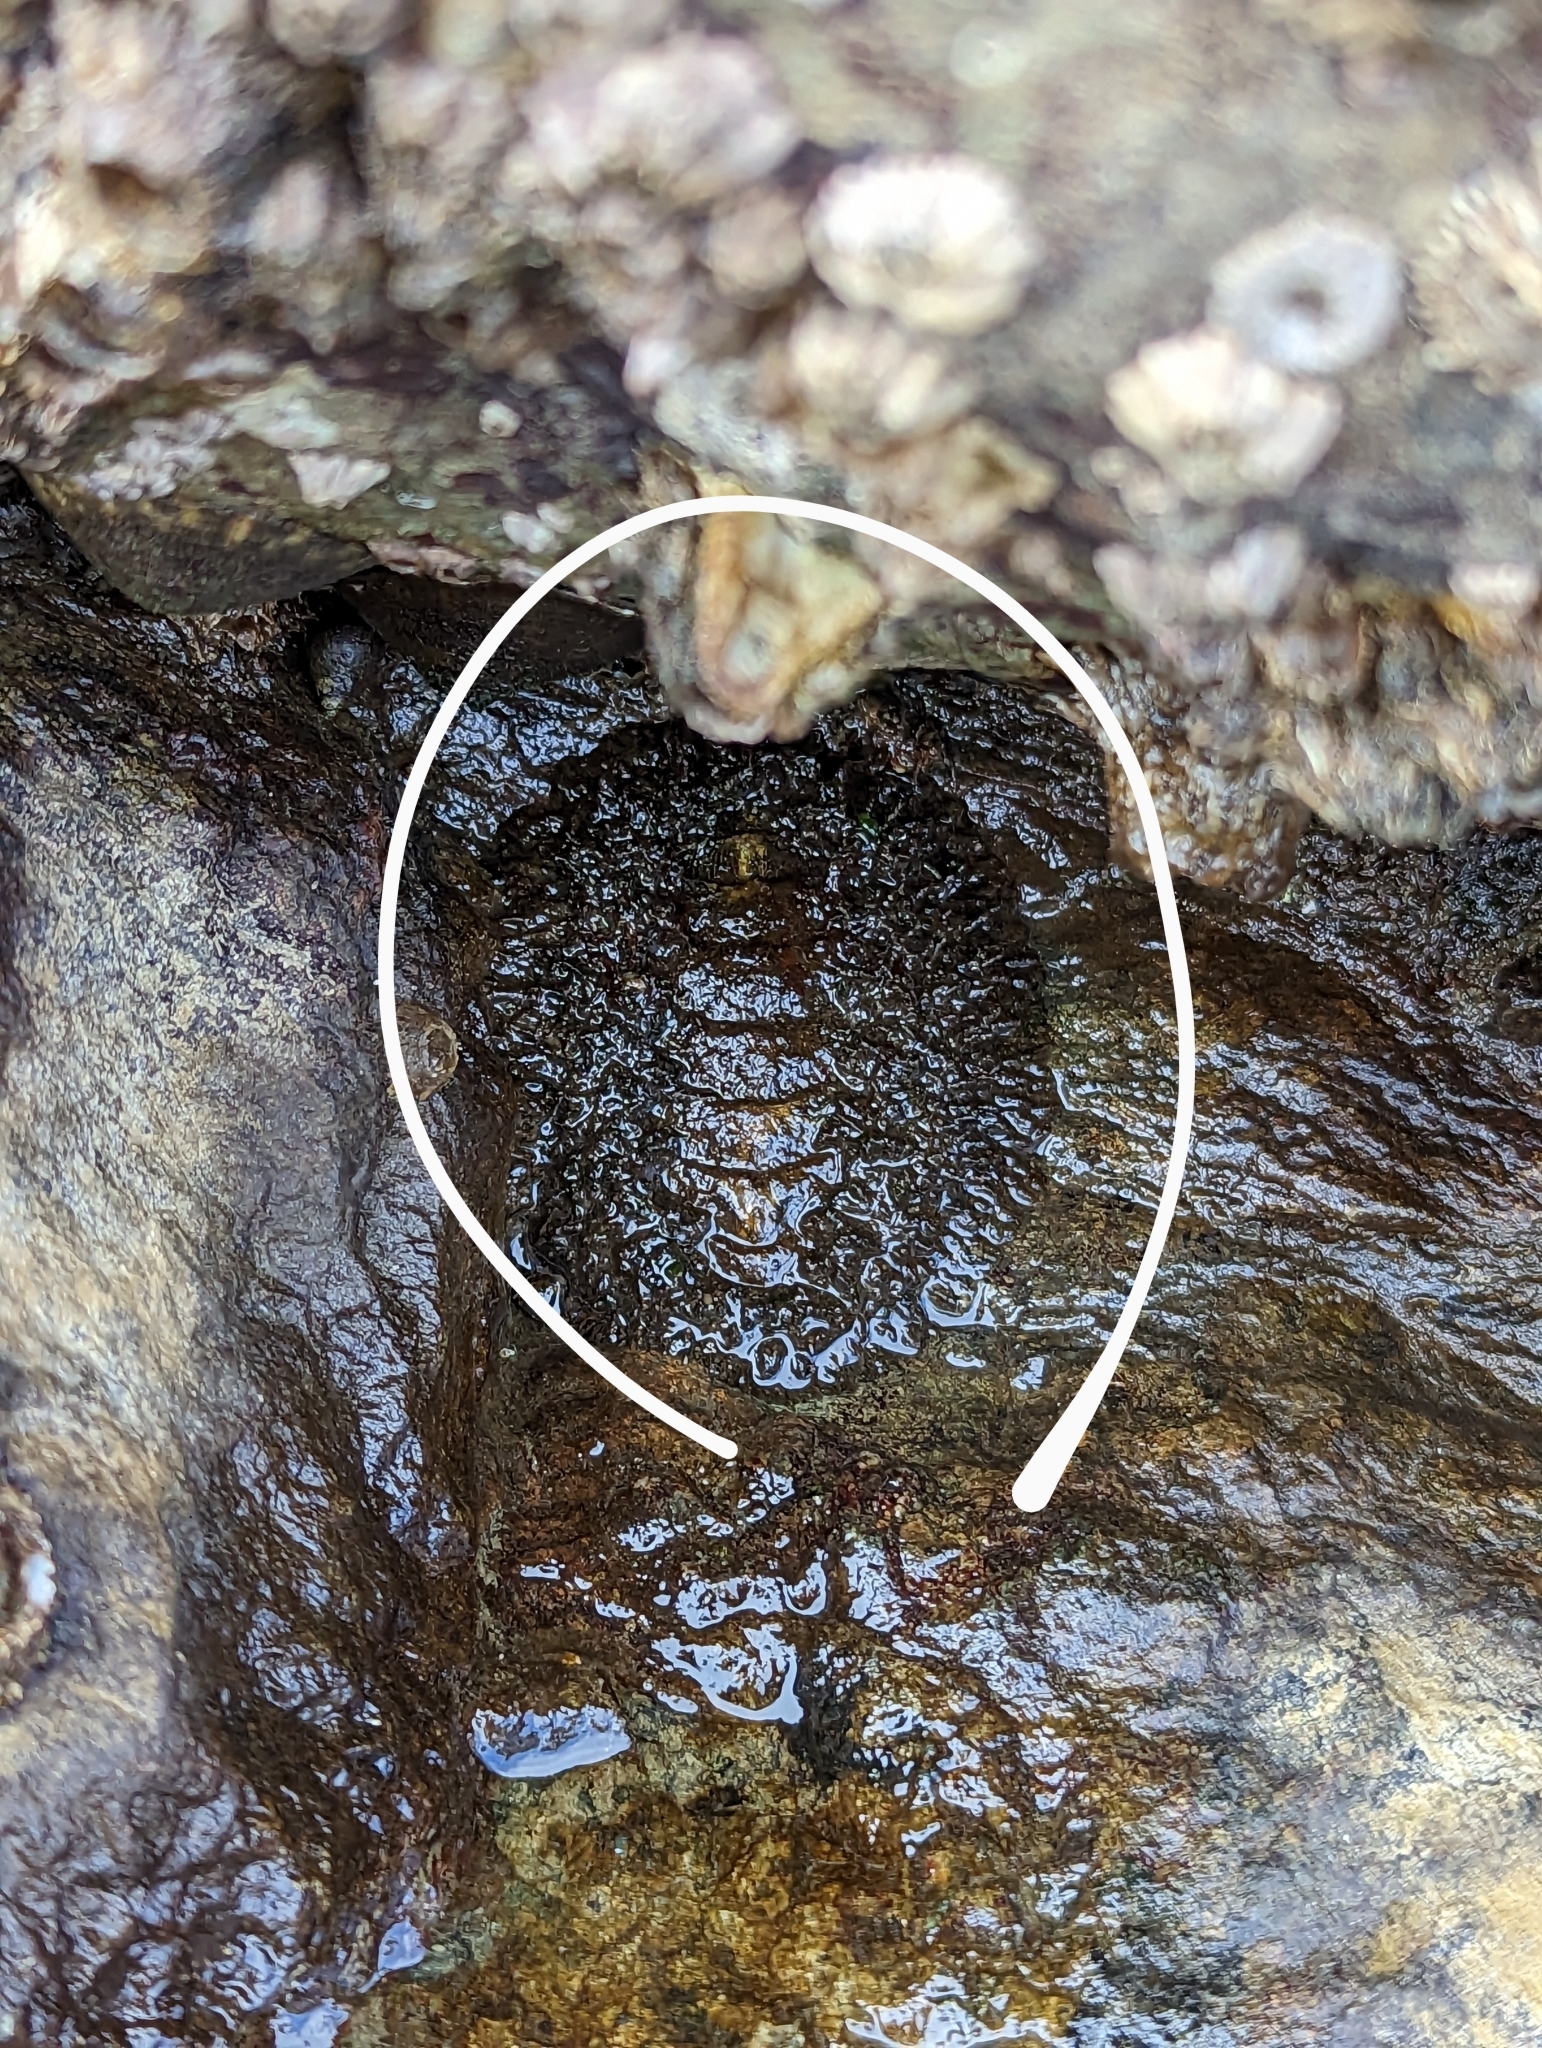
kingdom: Animalia
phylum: Mollusca
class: Polyplacophora
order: Chitonida
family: Mopaliidae
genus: Mopalia
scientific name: Mopalia muscosa
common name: Mossy chiton
